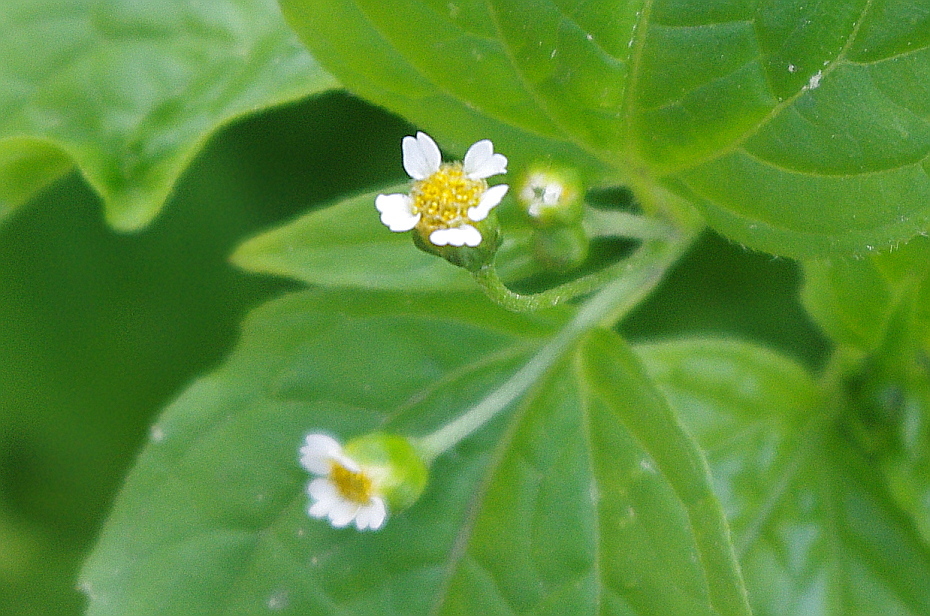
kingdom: Plantae
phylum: Tracheophyta
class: Magnoliopsida
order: Asterales
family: Asteraceae
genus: Galinsoga
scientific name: Galinsoga quadriradiata
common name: Shaggy soldier
